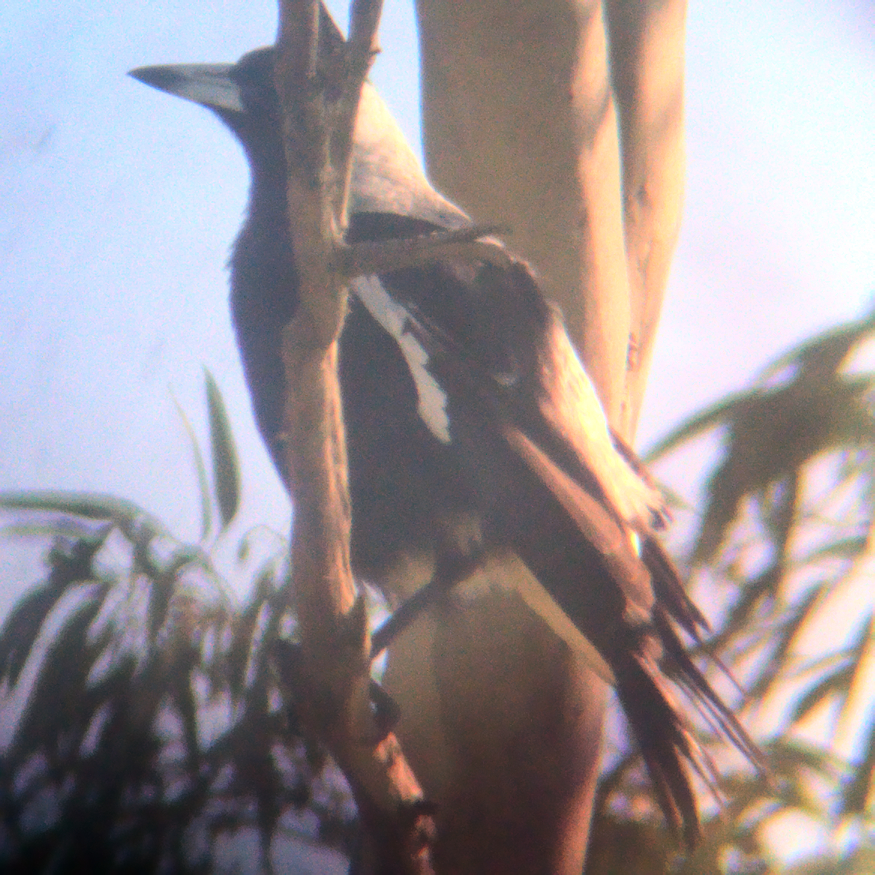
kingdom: Animalia
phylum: Chordata
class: Aves
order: Passeriformes
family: Cracticidae
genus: Gymnorhina
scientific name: Gymnorhina tibicen
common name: Australian magpie
